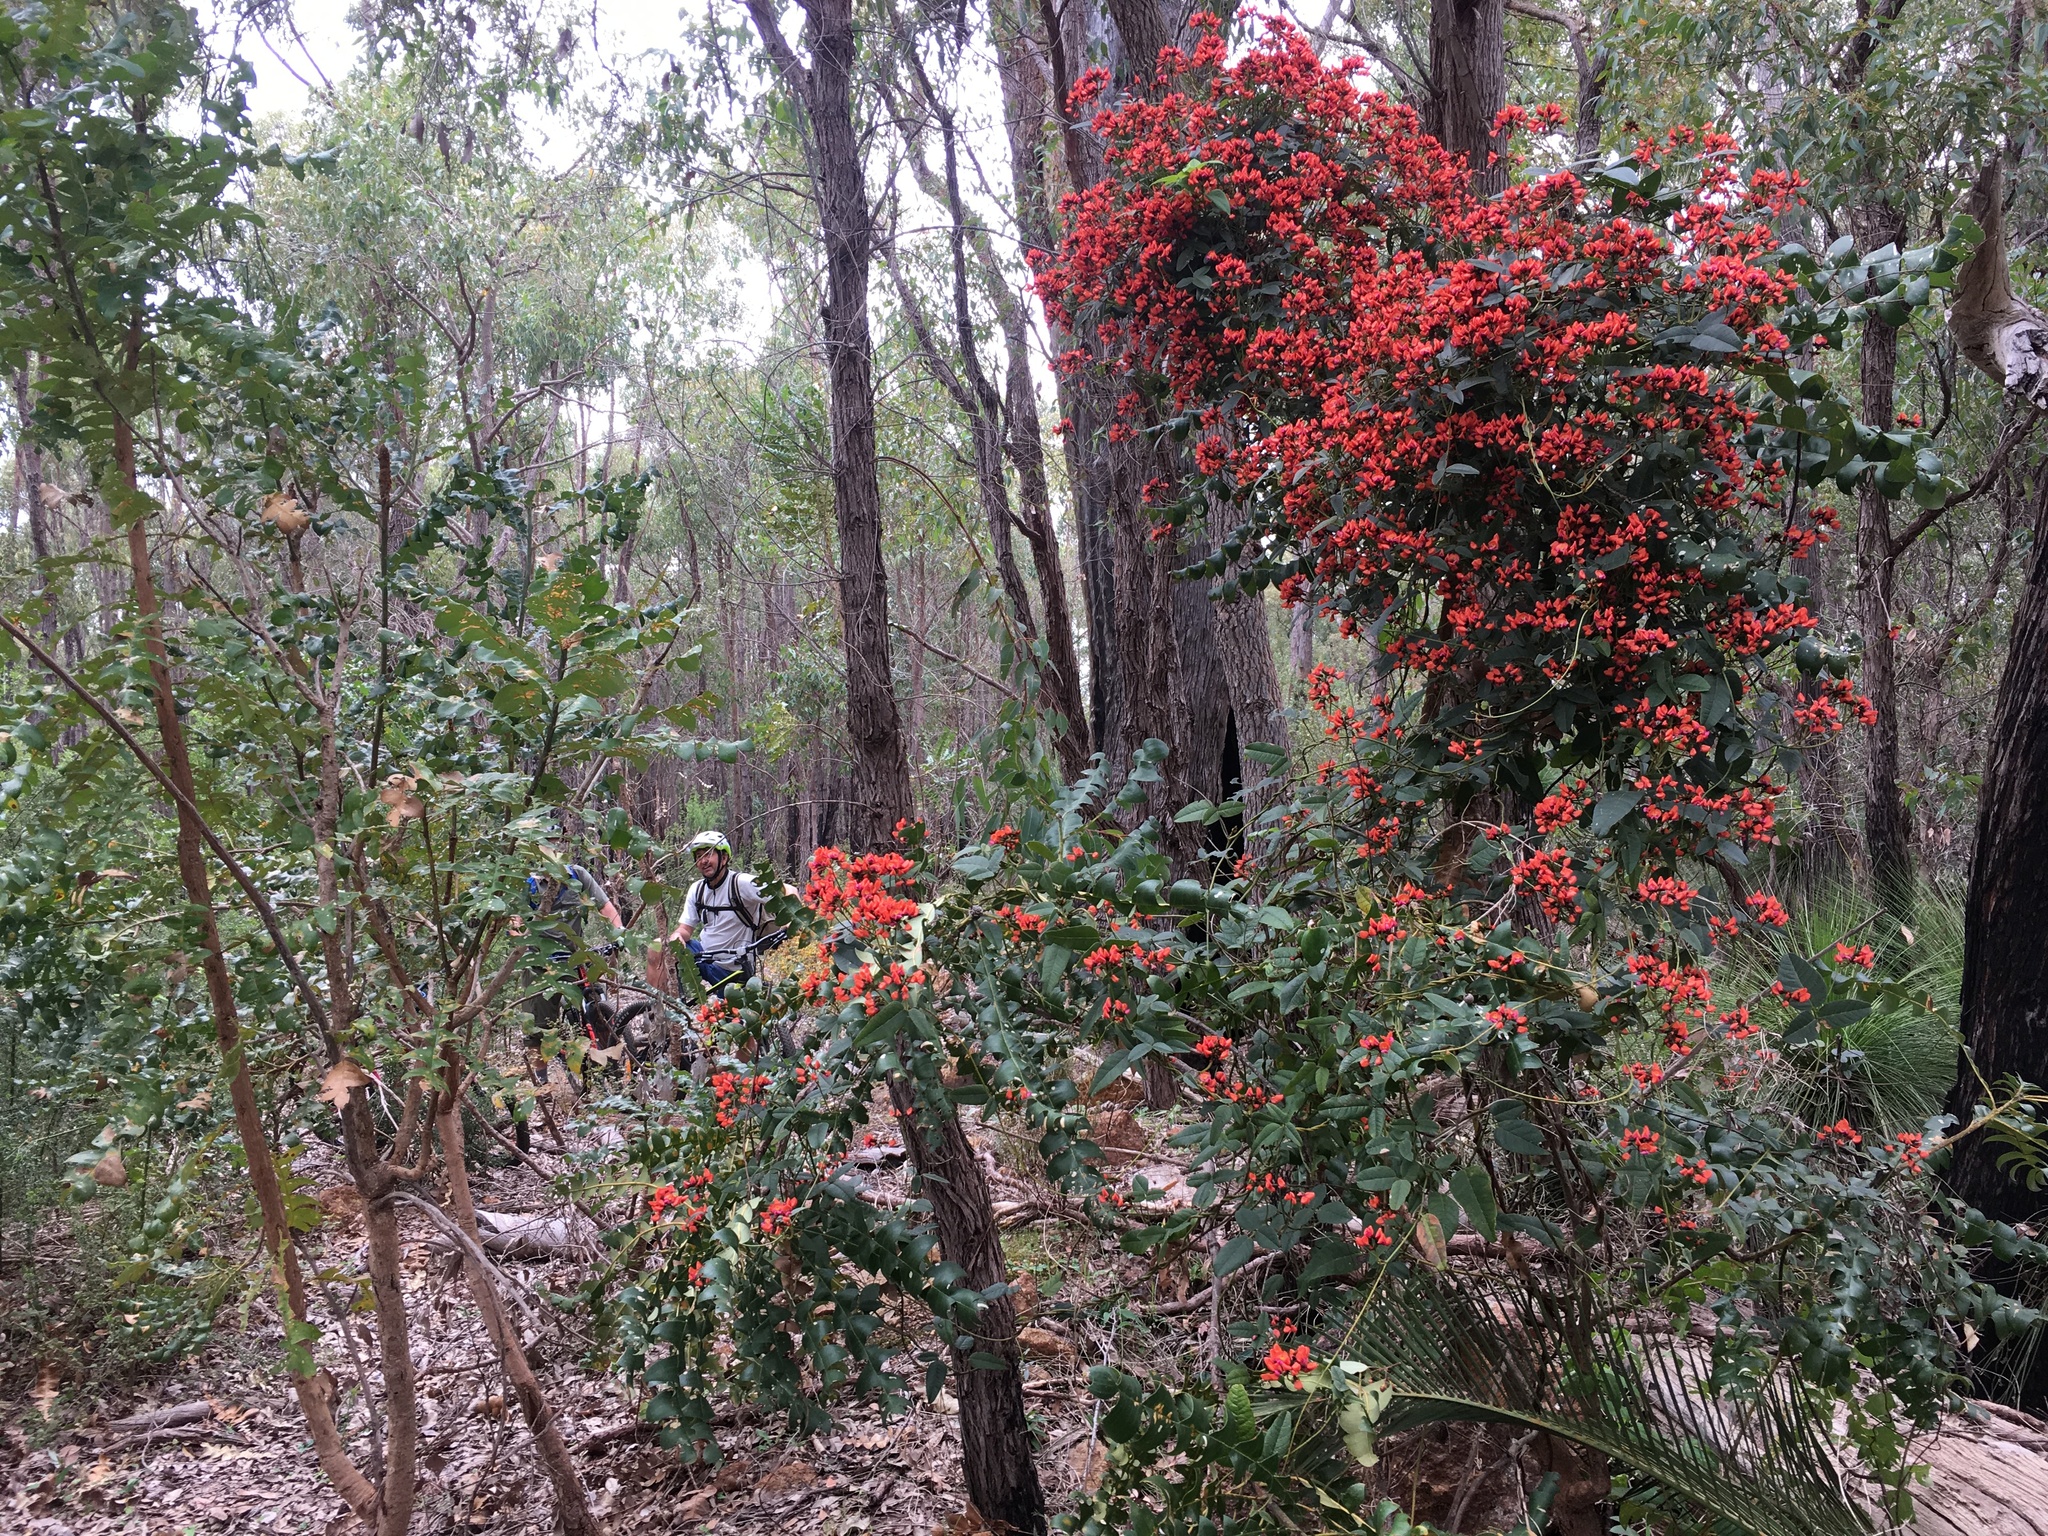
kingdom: Plantae
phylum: Tracheophyta
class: Magnoliopsida
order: Fabales
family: Fabaceae
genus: Kennedia
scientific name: Kennedia coccinea
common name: Coralvine
